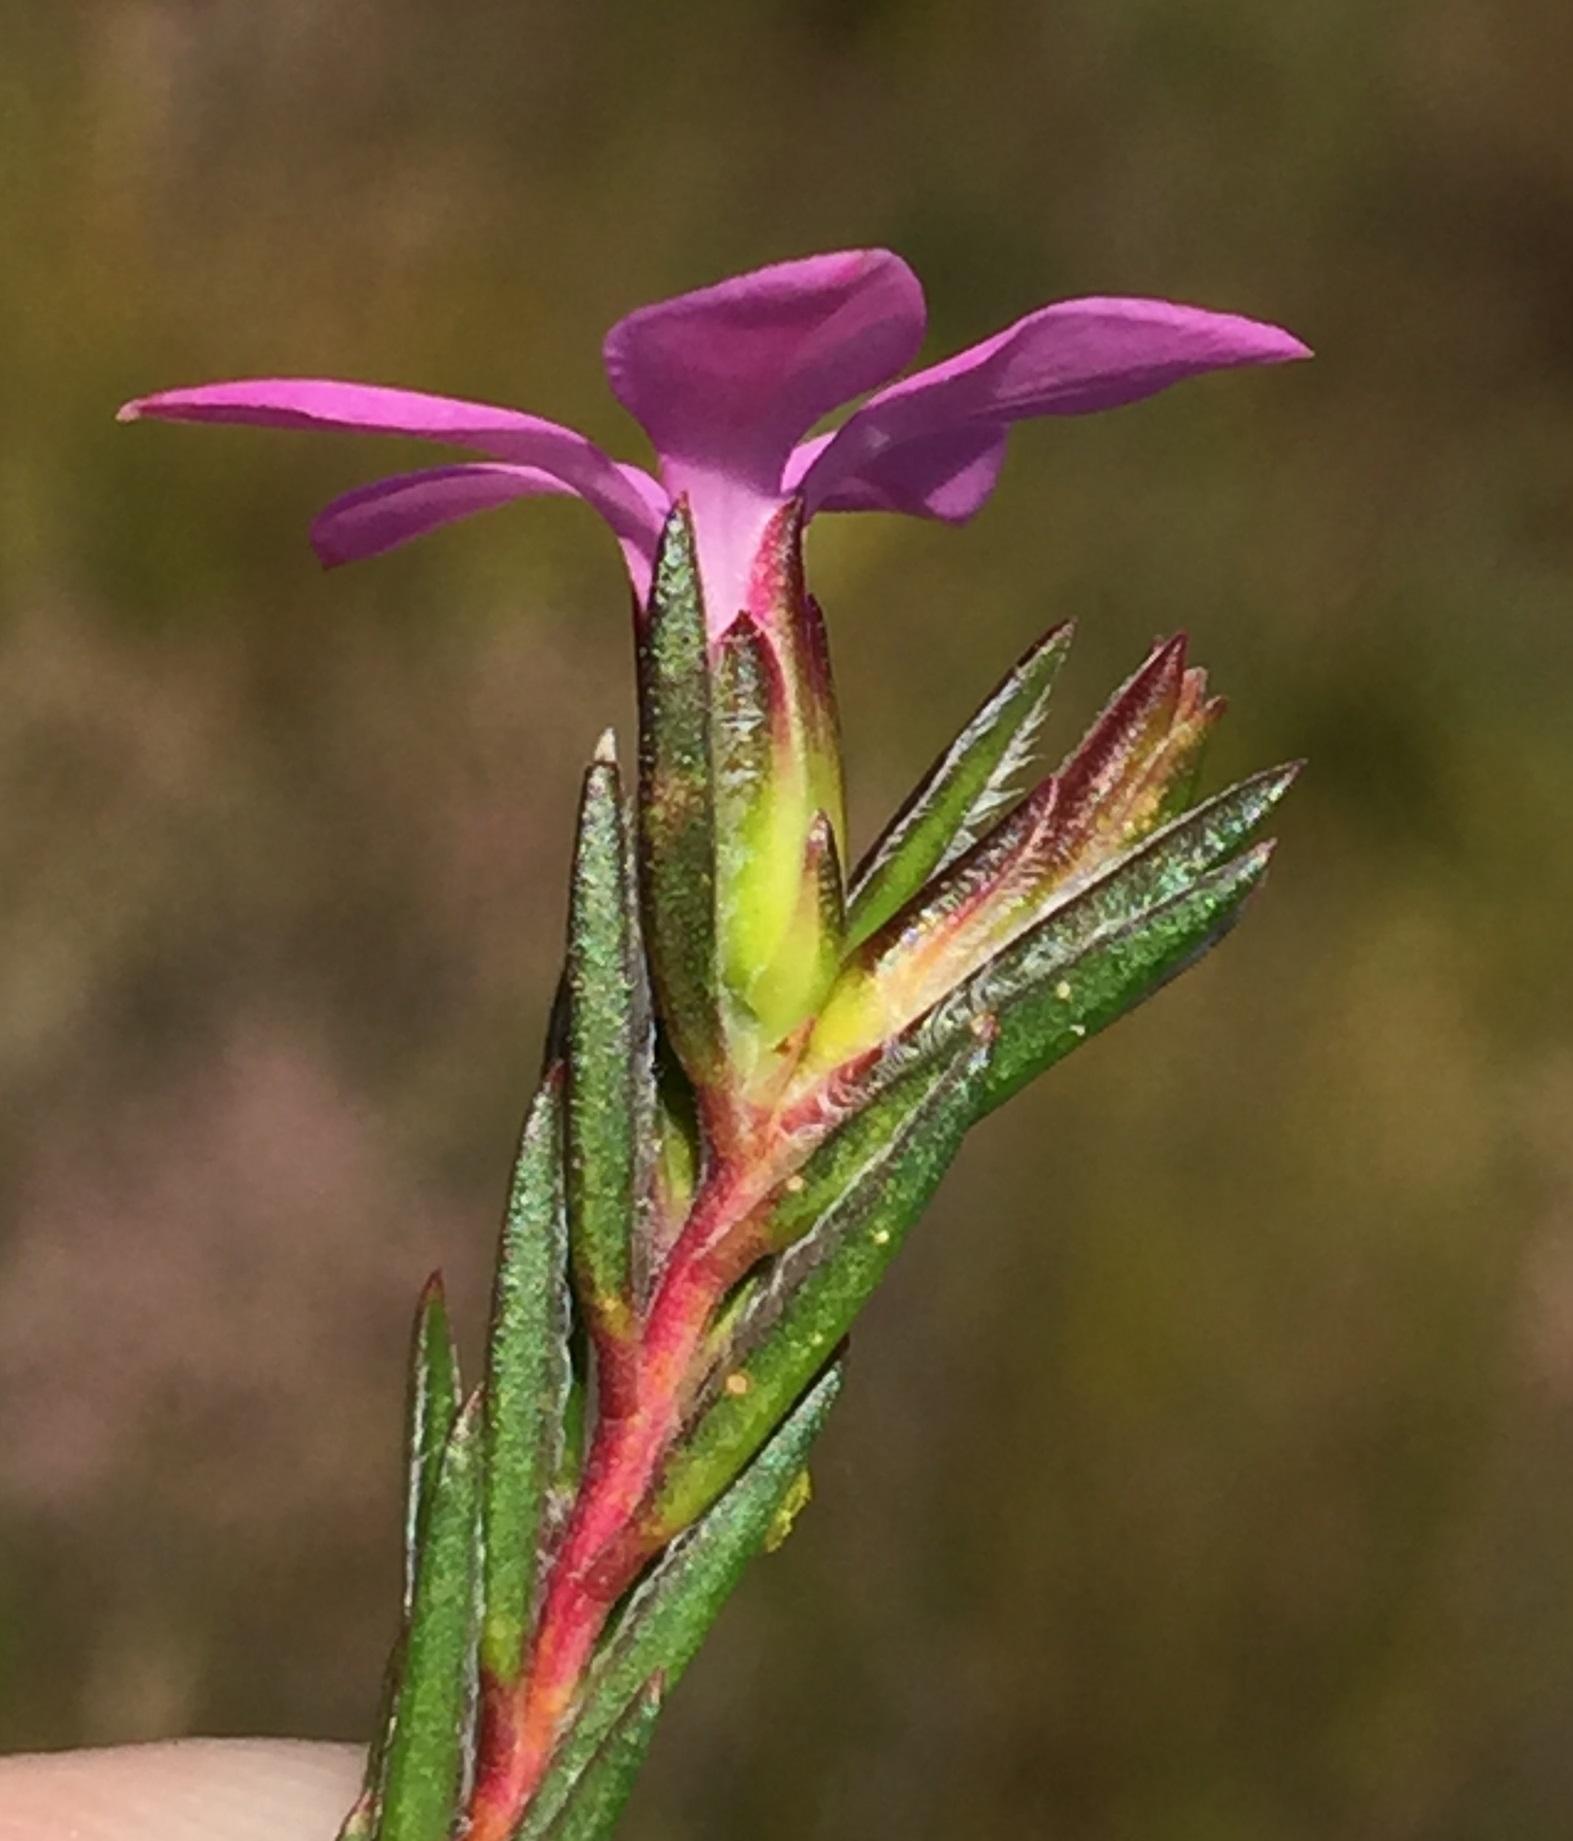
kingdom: Plantae
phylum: Tracheophyta
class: Magnoliopsida
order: Sapindales
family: Rutaceae
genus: Acmadenia
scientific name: Acmadenia trigona
